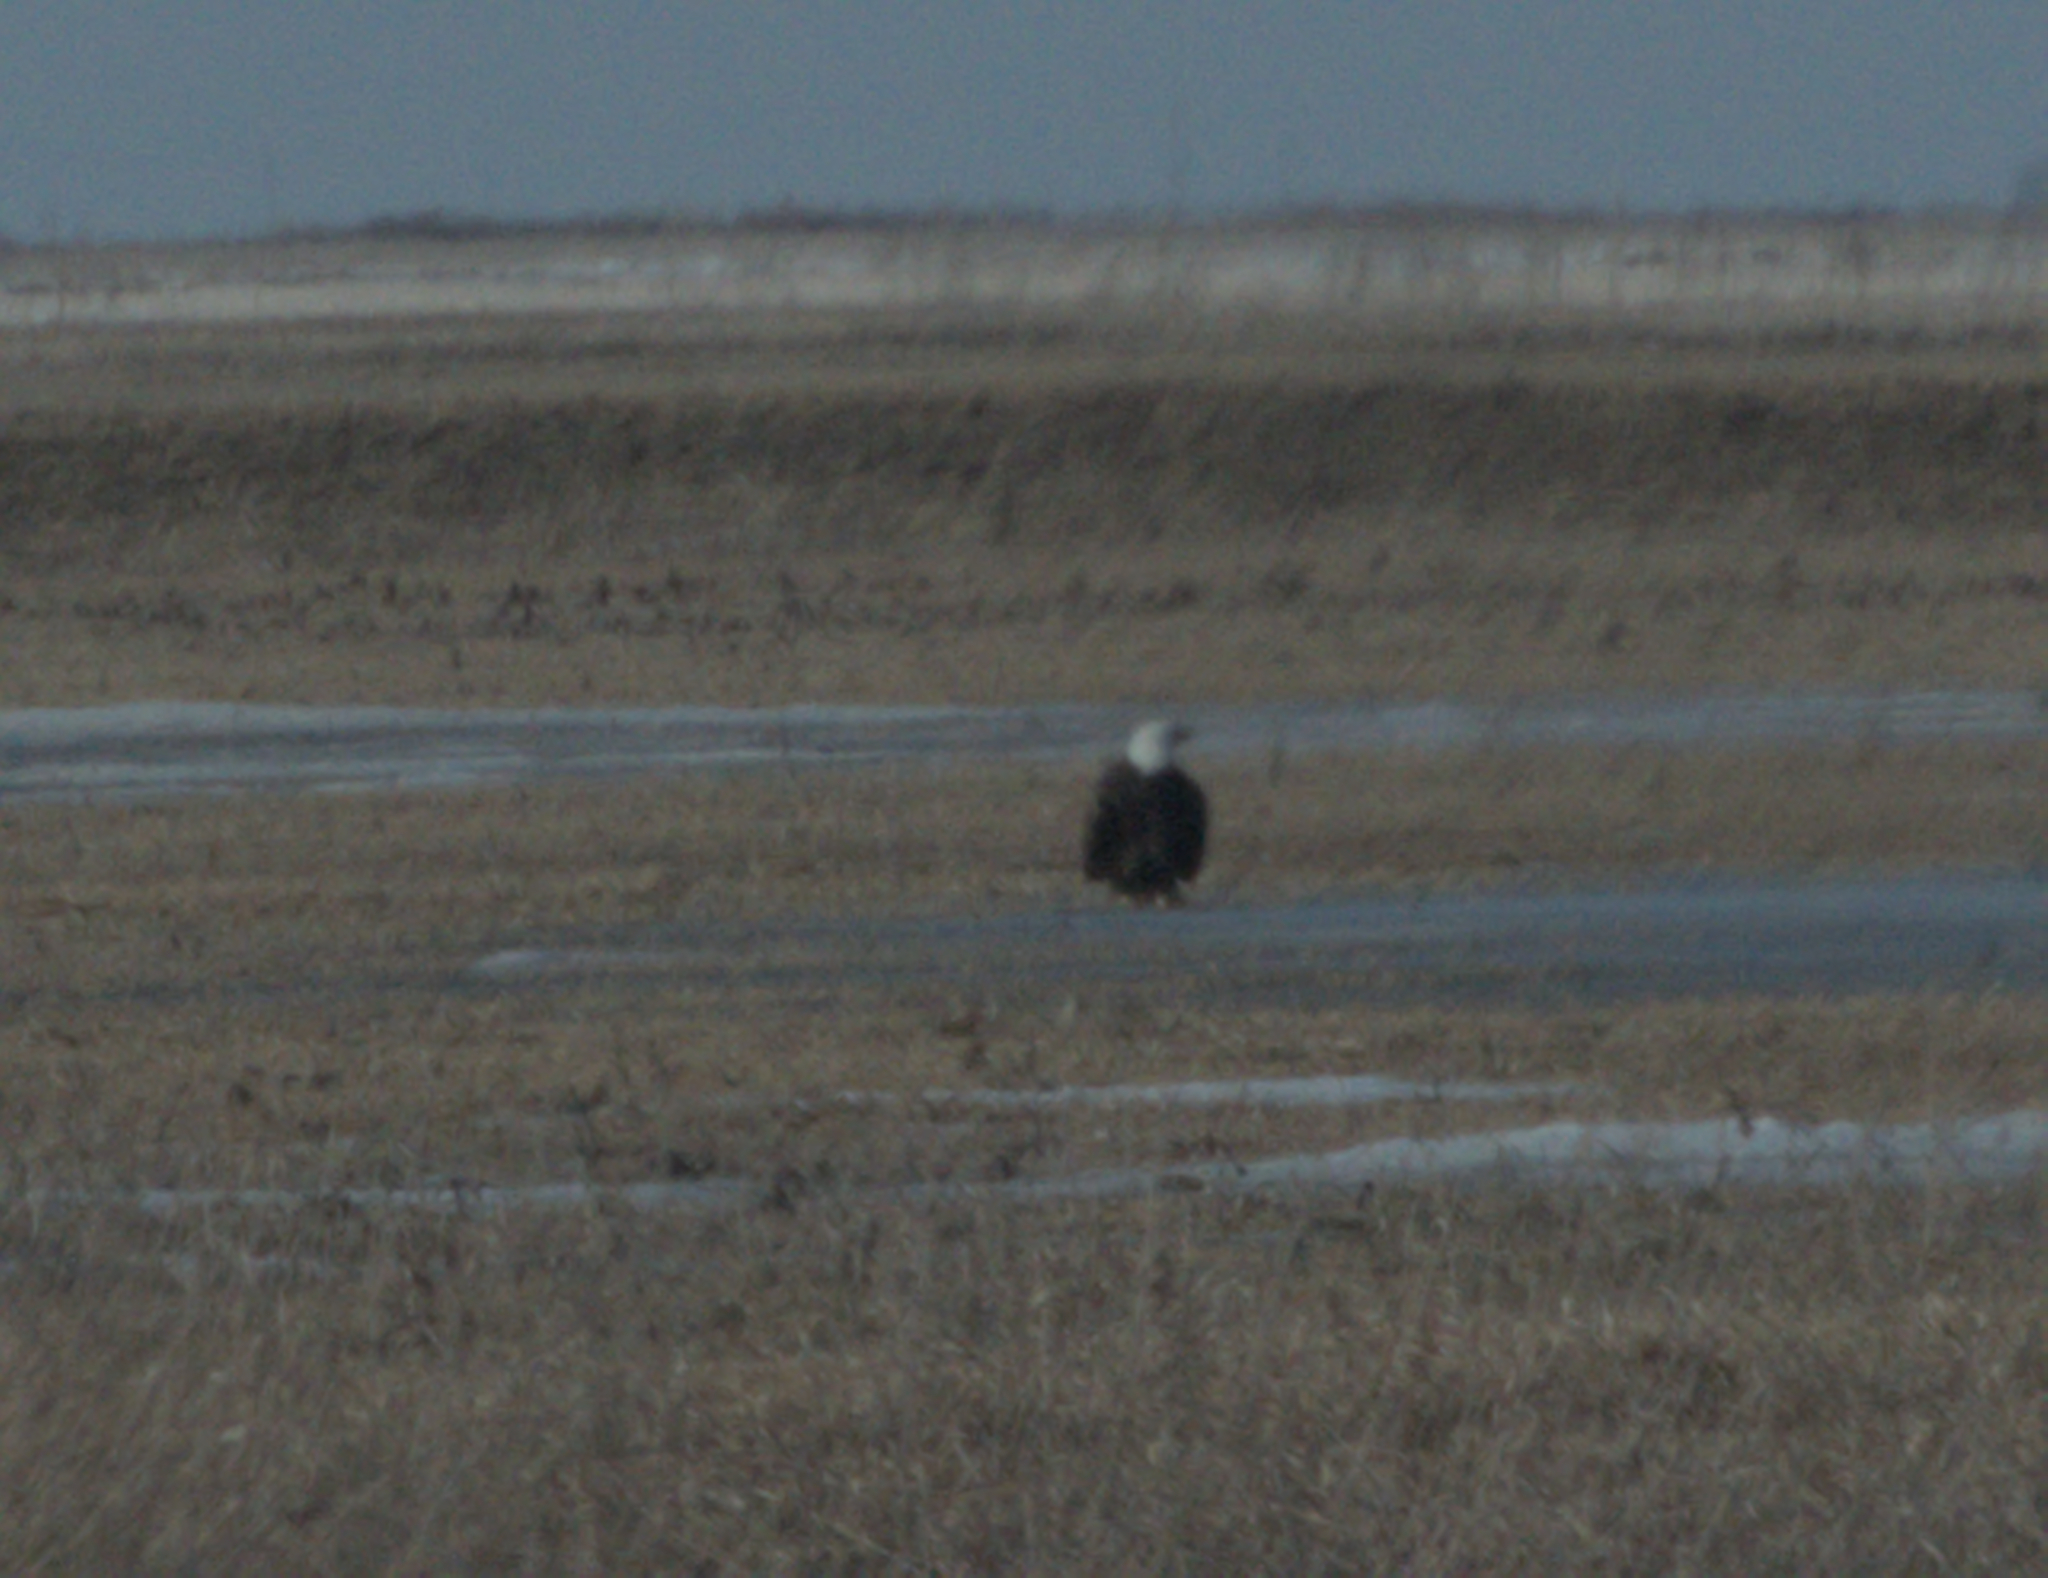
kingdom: Animalia
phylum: Chordata
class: Aves
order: Accipitriformes
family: Accipitridae
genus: Haliaeetus
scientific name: Haliaeetus leucocephalus
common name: Bald eagle
